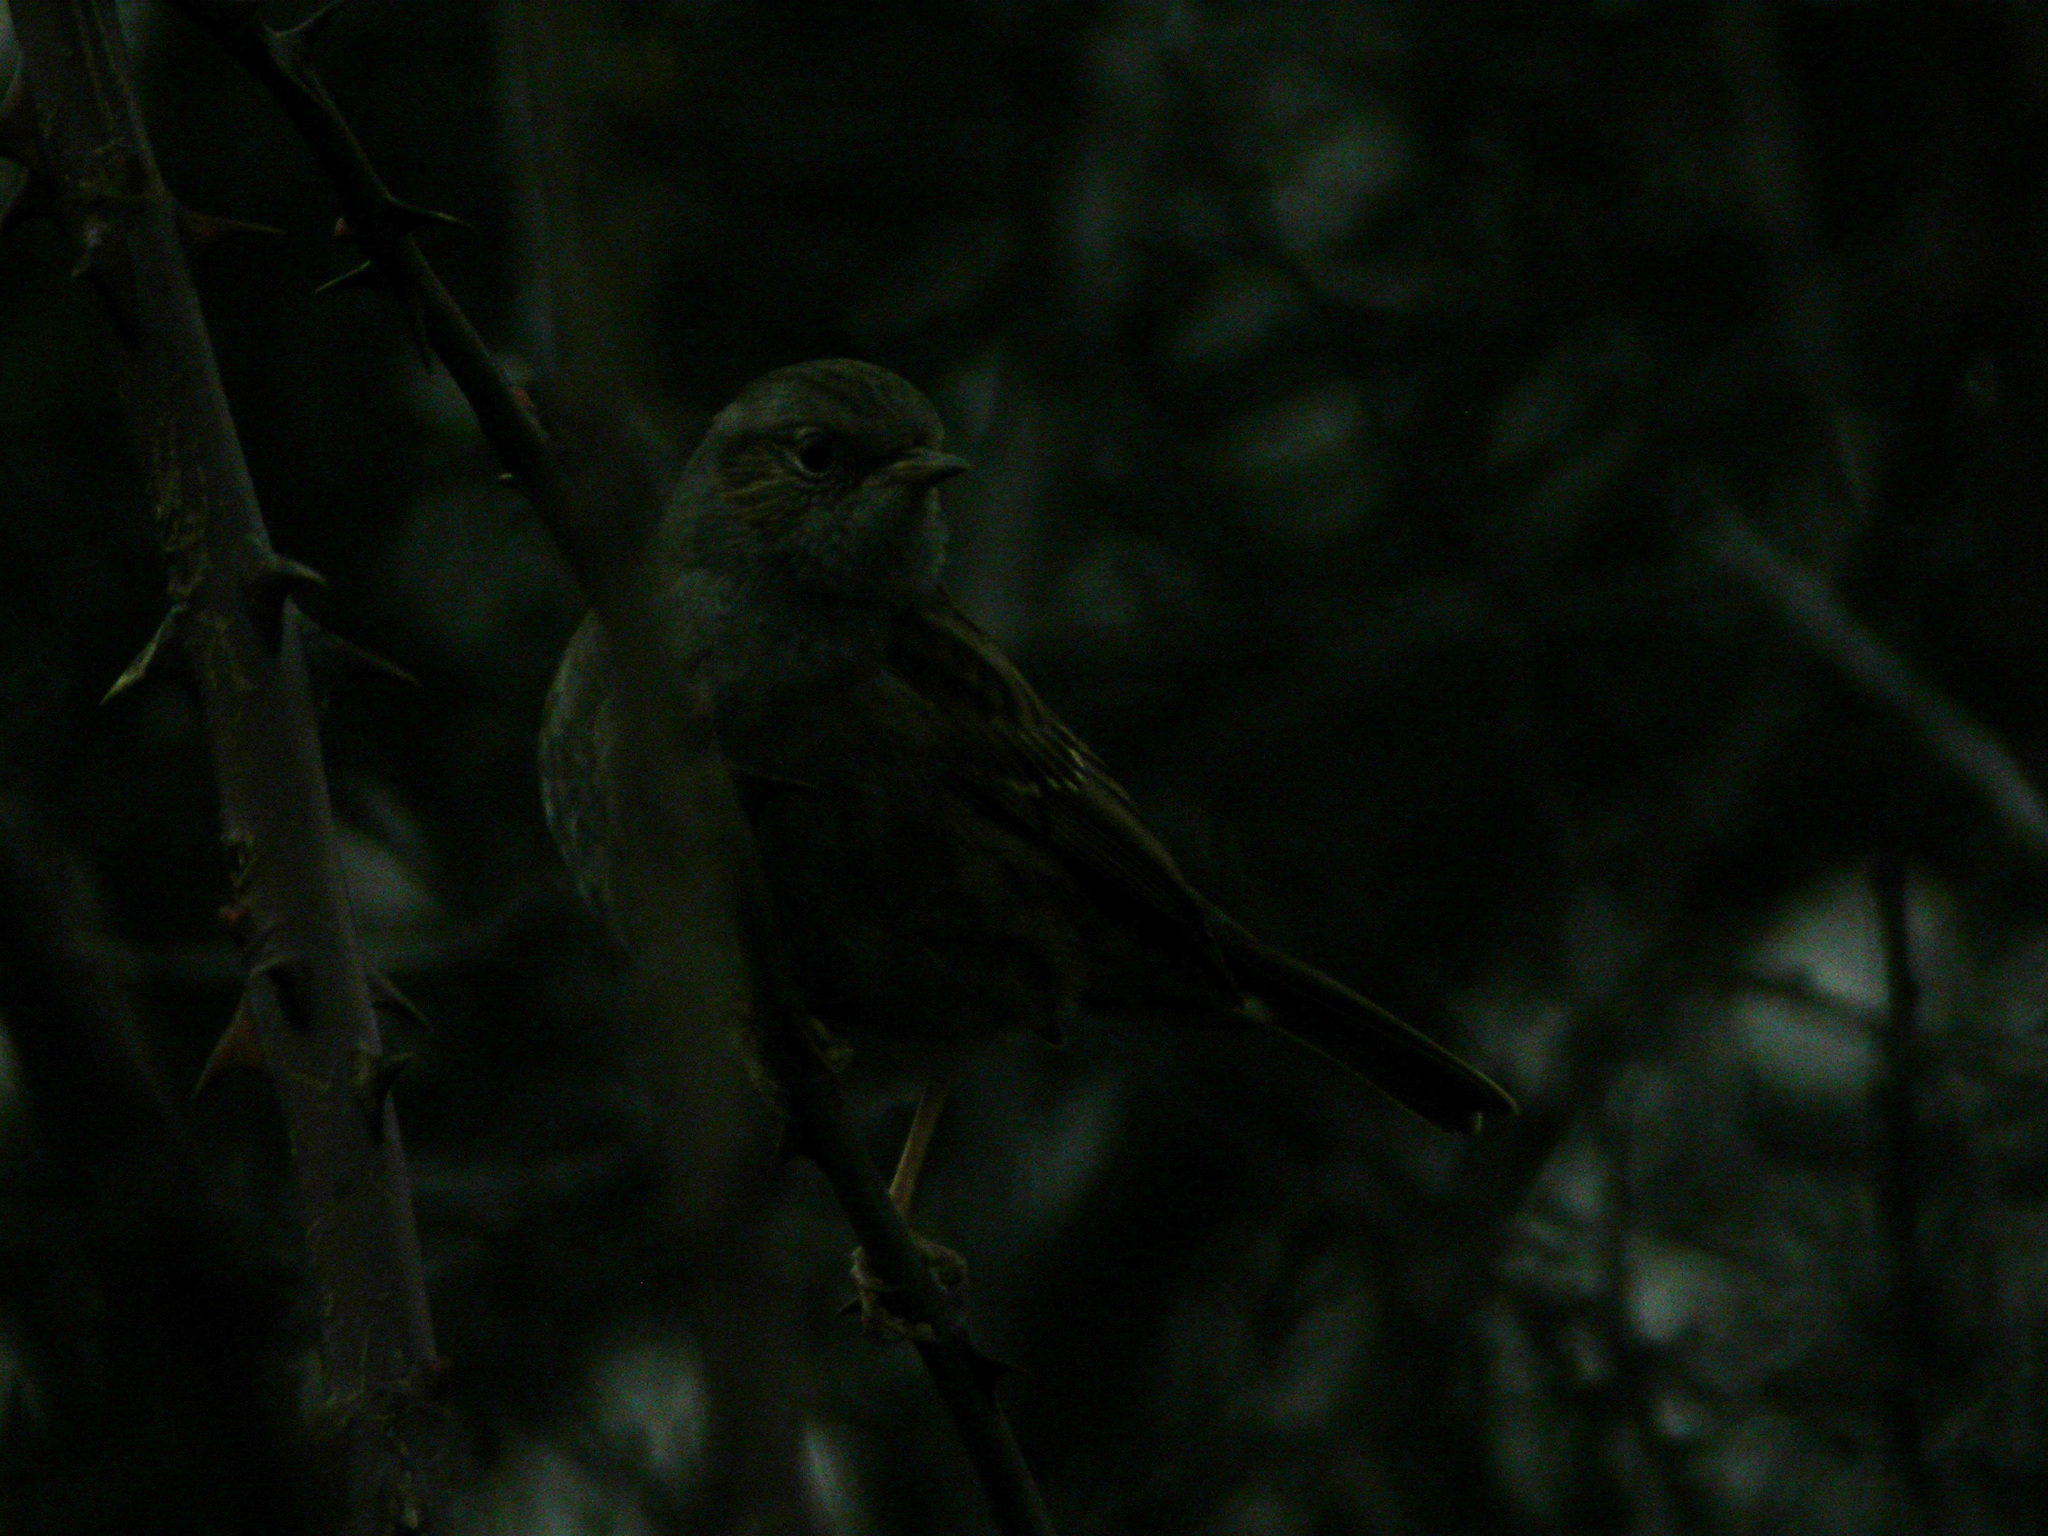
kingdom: Animalia
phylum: Chordata
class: Aves
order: Passeriformes
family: Prunellidae
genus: Prunella
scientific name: Prunella modularis
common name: Dunnock
